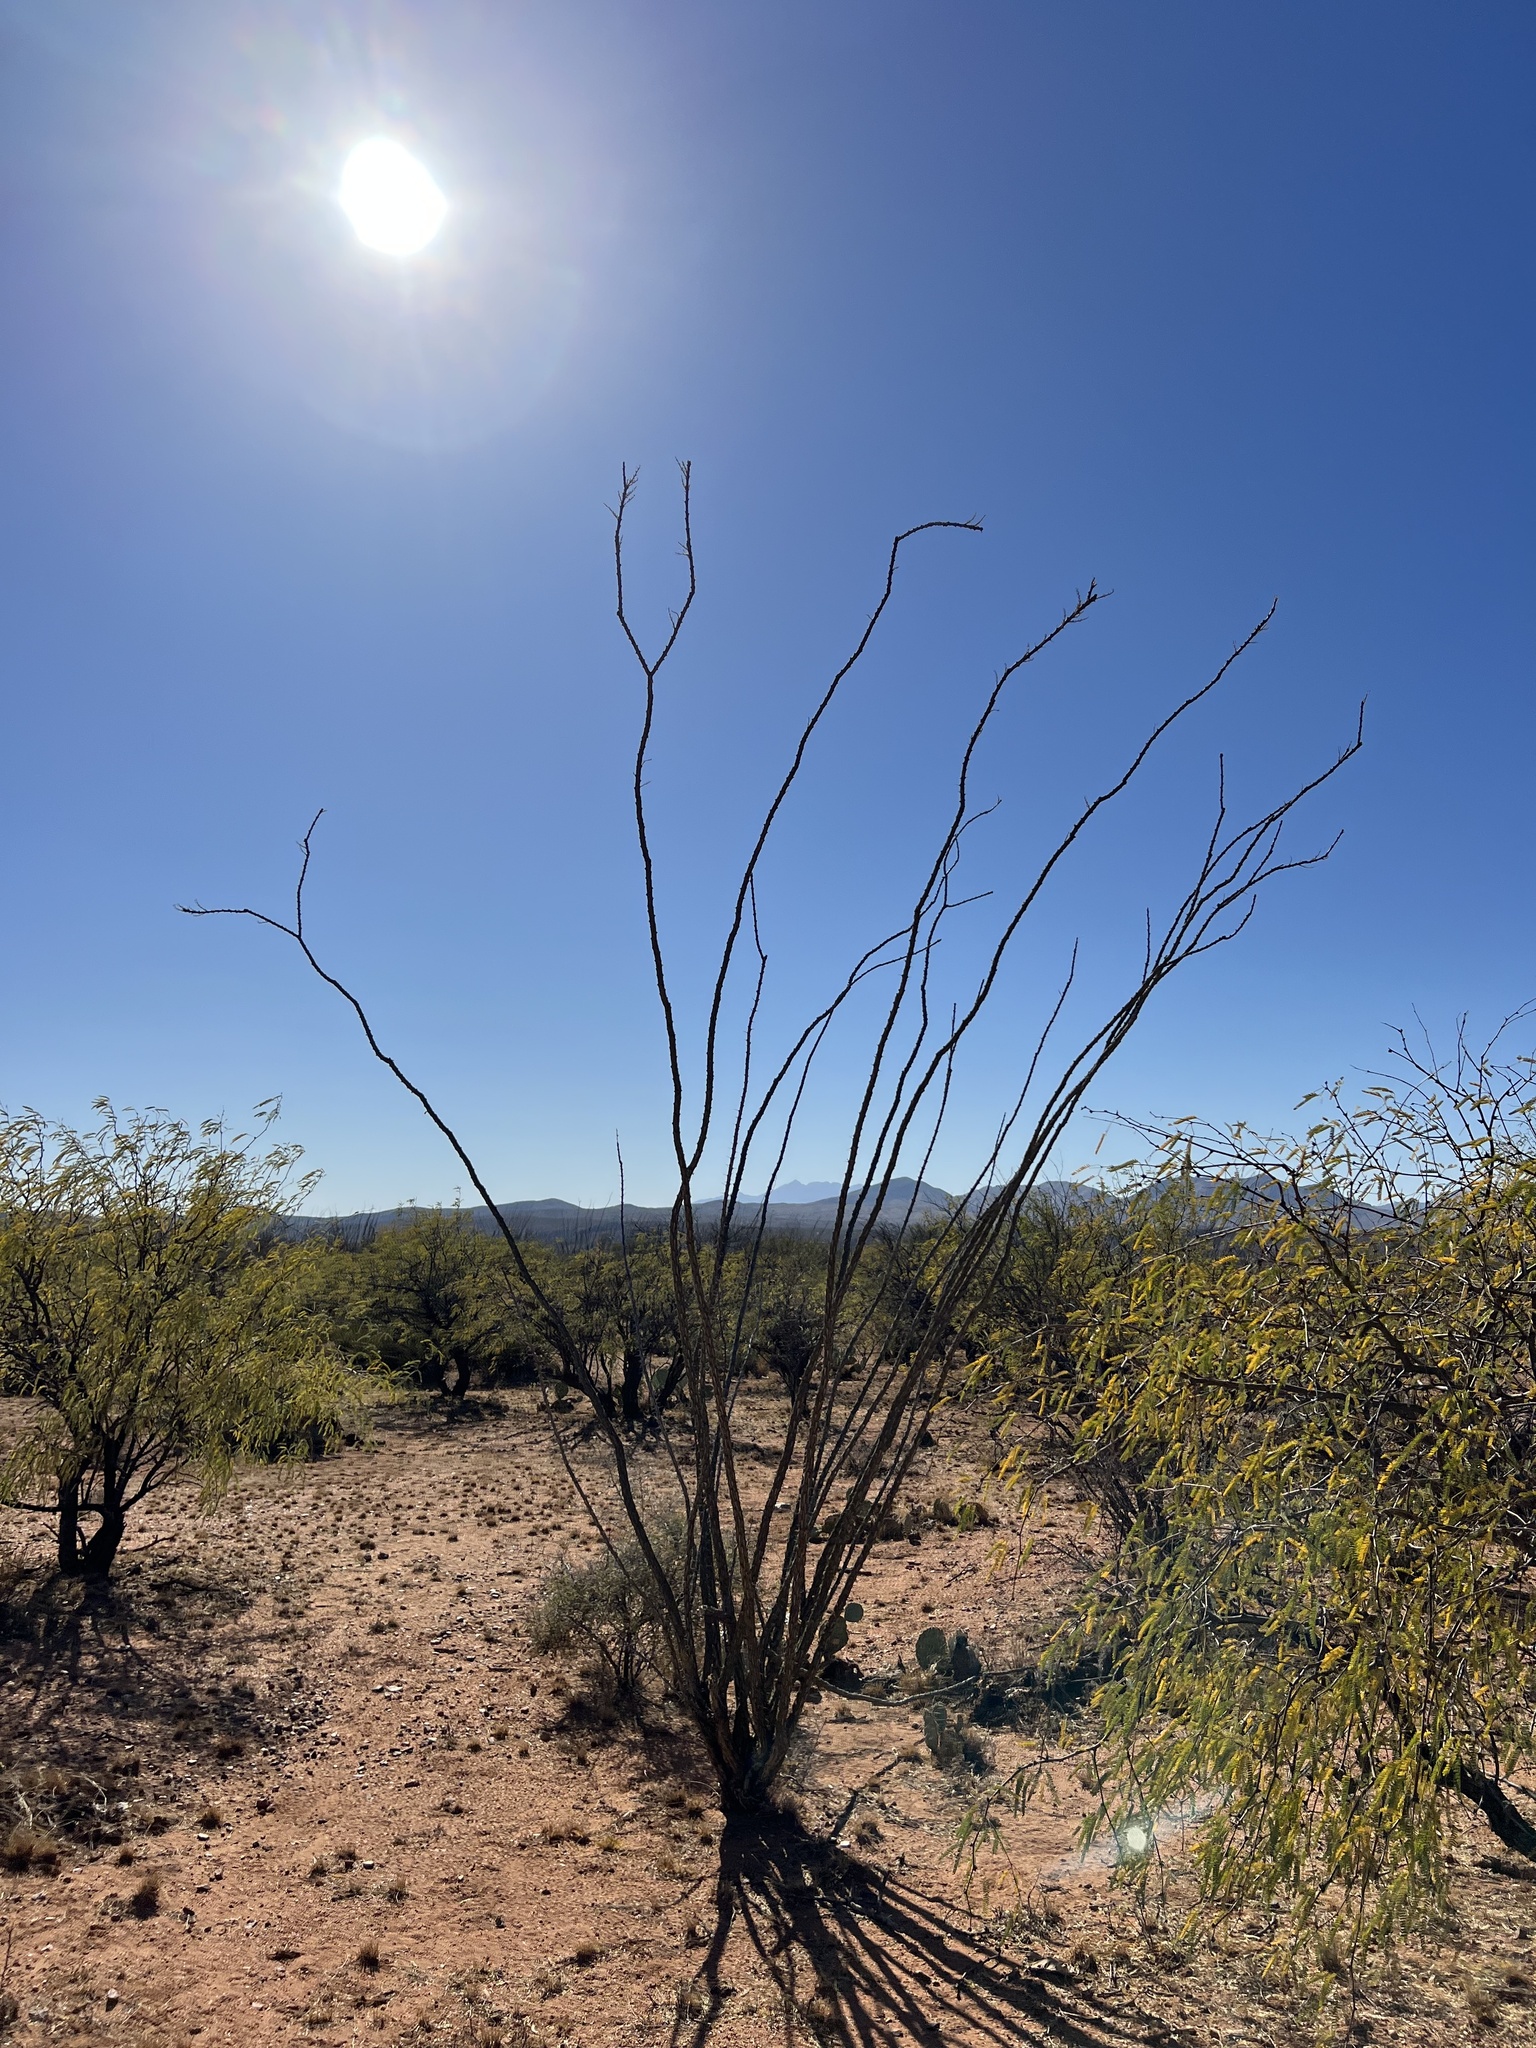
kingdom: Plantae
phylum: Tracheophyta
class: Magnoliopsida
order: Ericales
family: Fouquieriaceae
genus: Fouquieria
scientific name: Fouquieria splendens
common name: Vine-cactus
